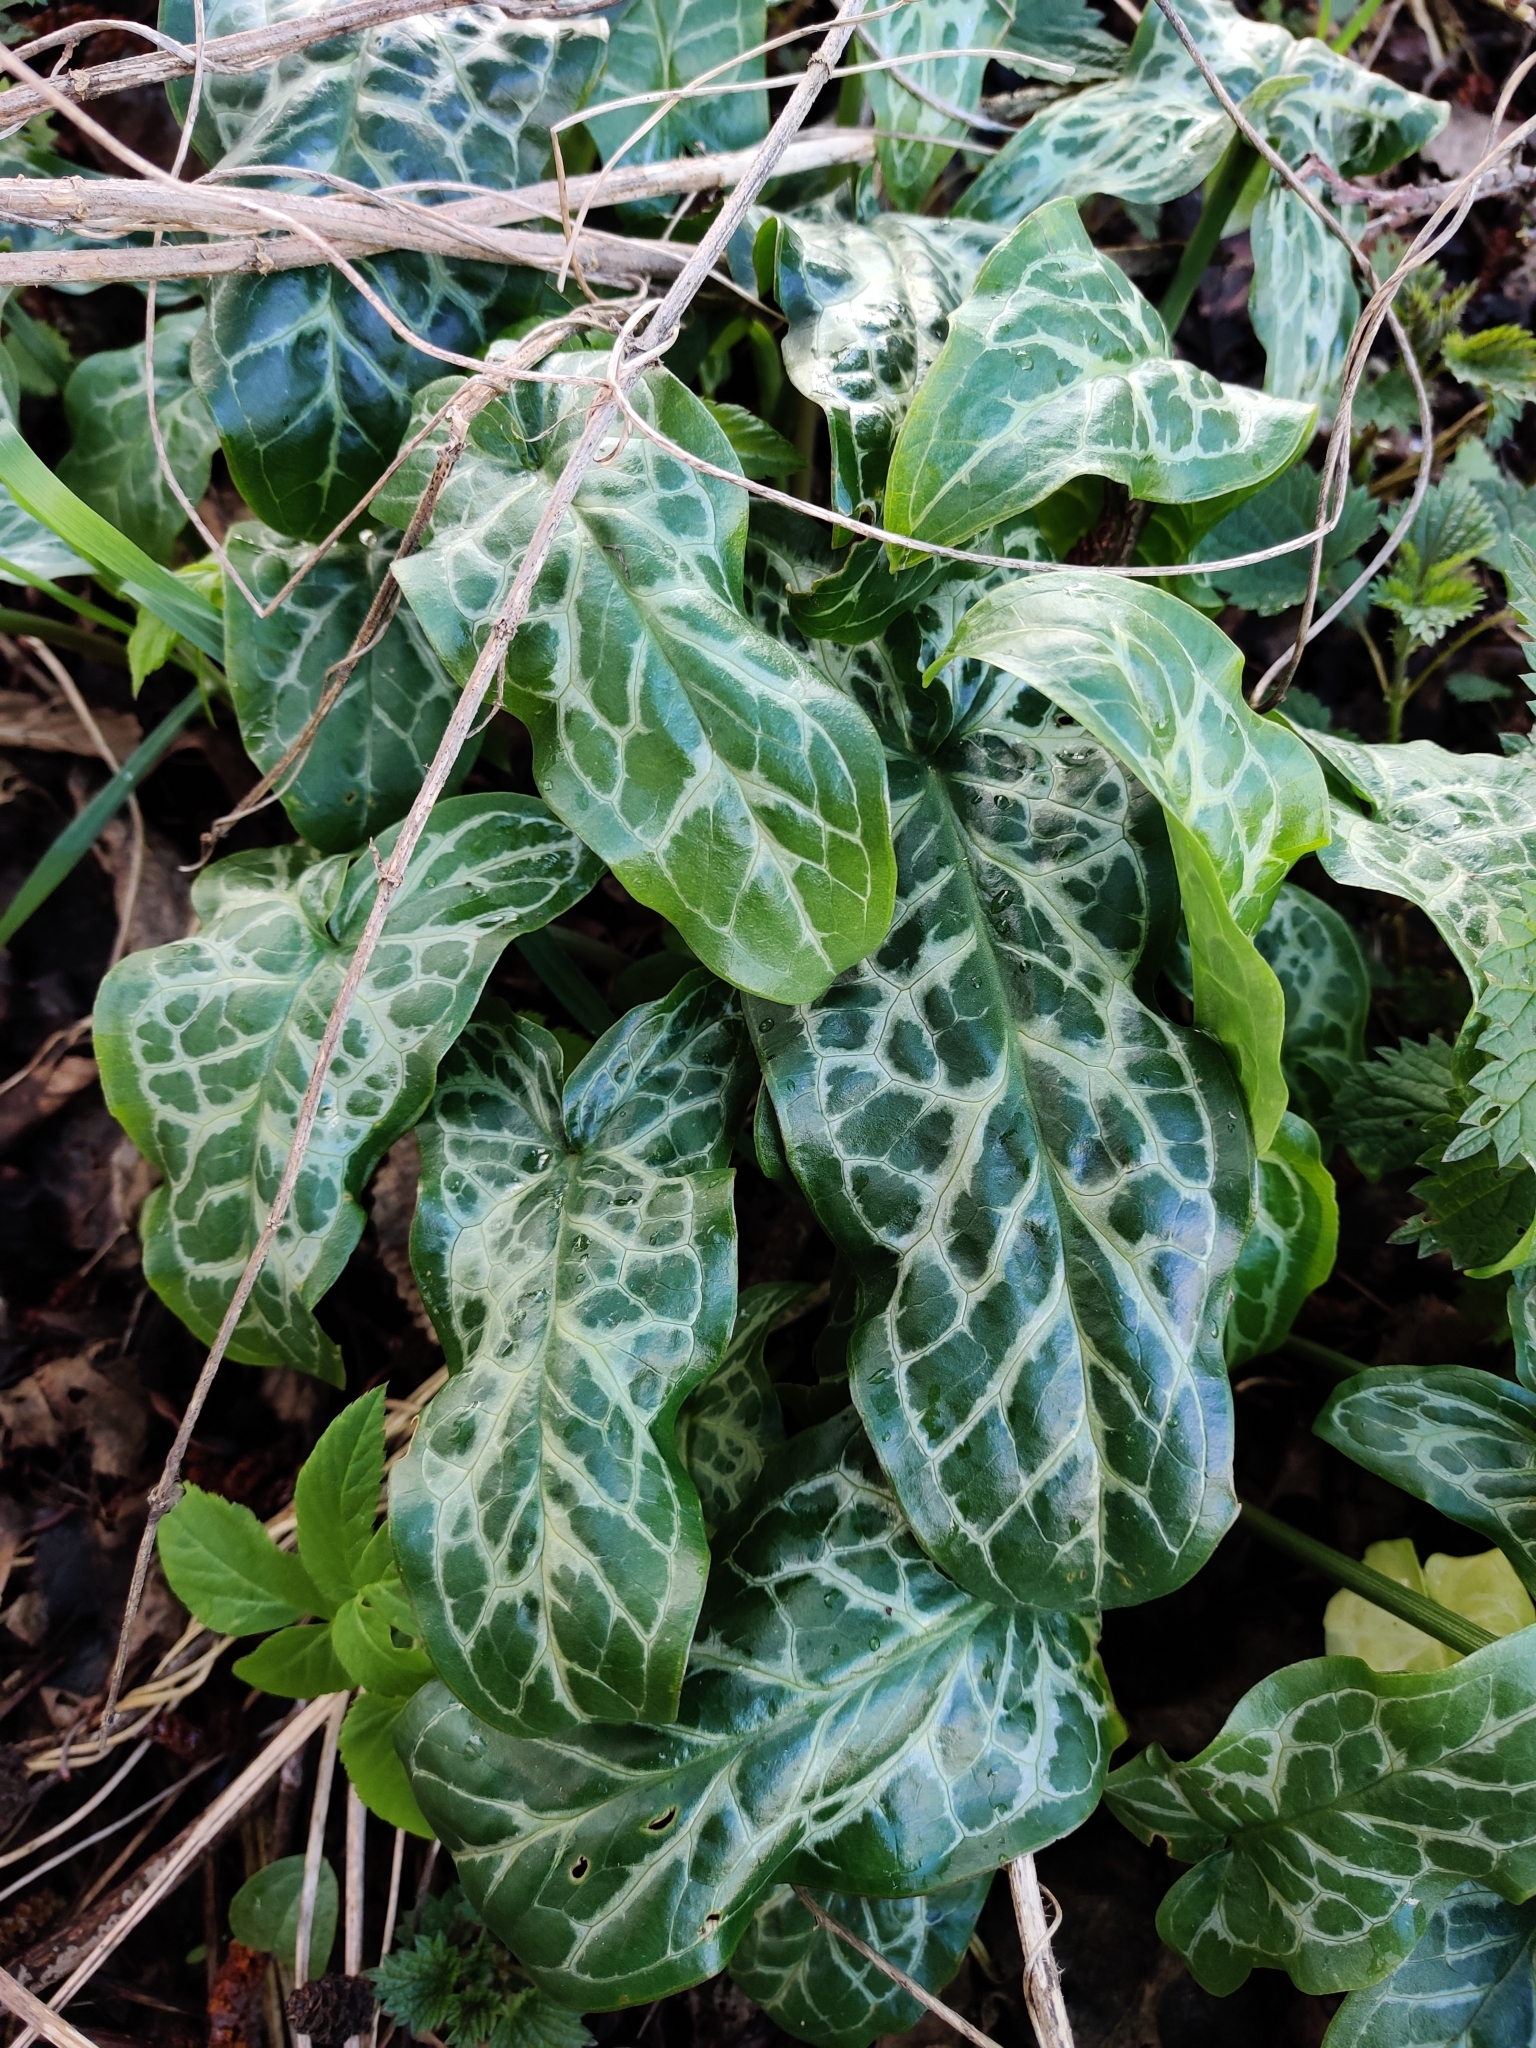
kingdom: Plantae
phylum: Tracheophyta
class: Liliopsida
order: Alismatales
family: Araceae
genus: Arum
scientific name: Arum italicum
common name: Italian lords-and-ladies
